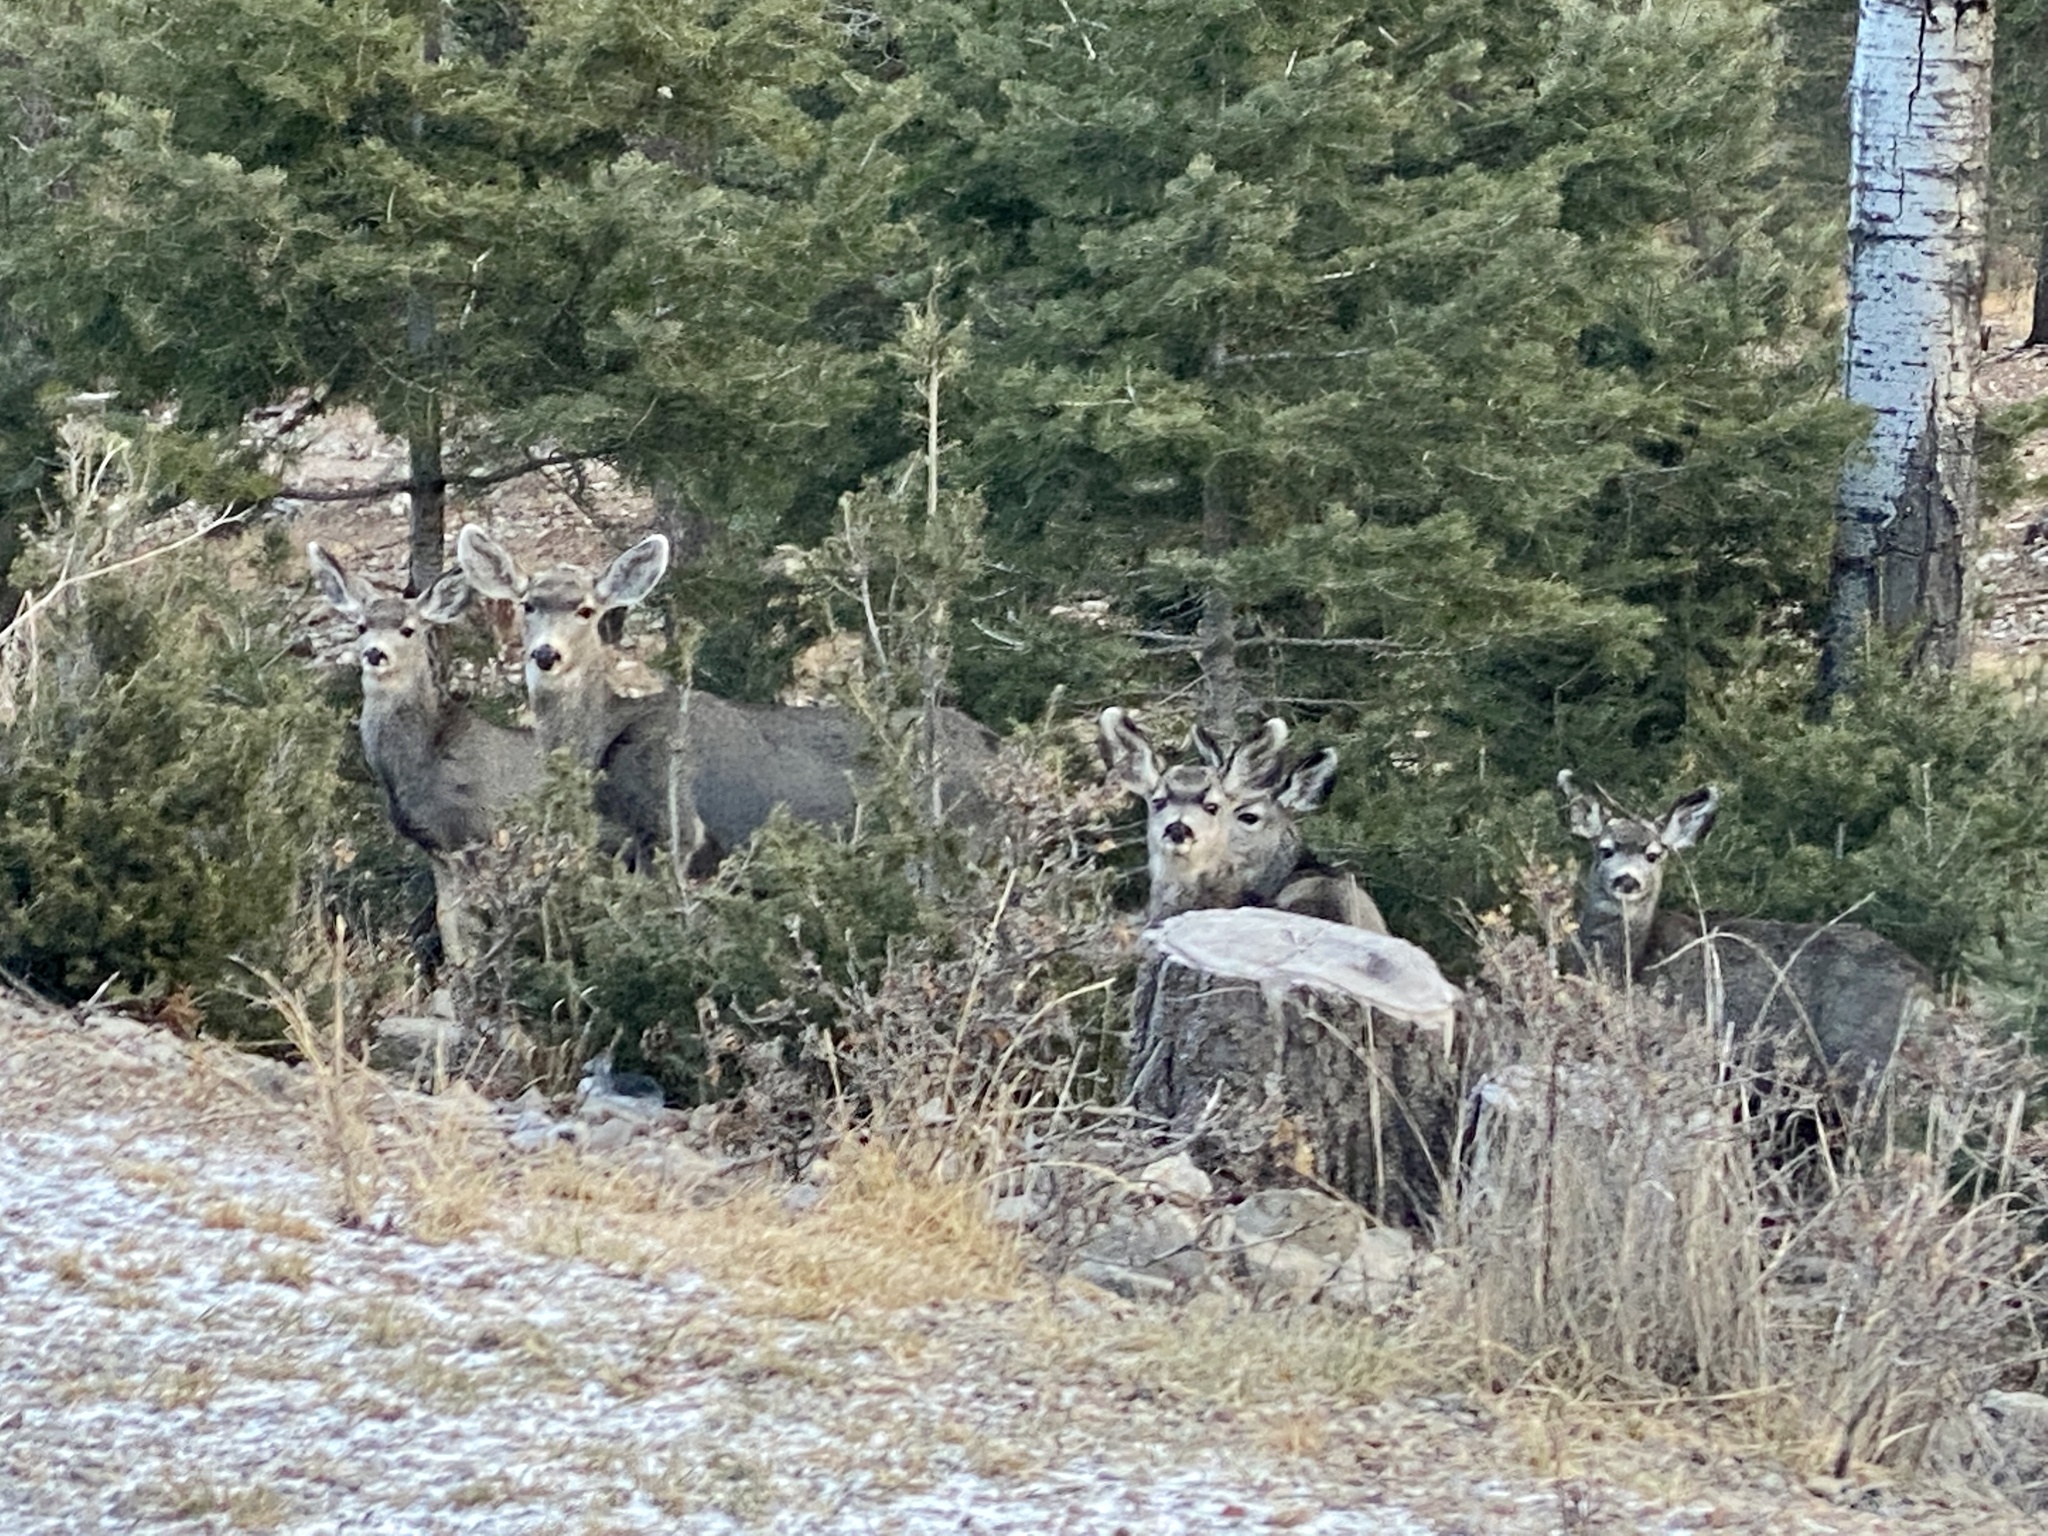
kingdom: Animalia
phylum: Chordata
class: Mammalia
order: Artiodactyla
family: Cervidae
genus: Odocoileus
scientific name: Odocoileus hemionus
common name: Mule deer
